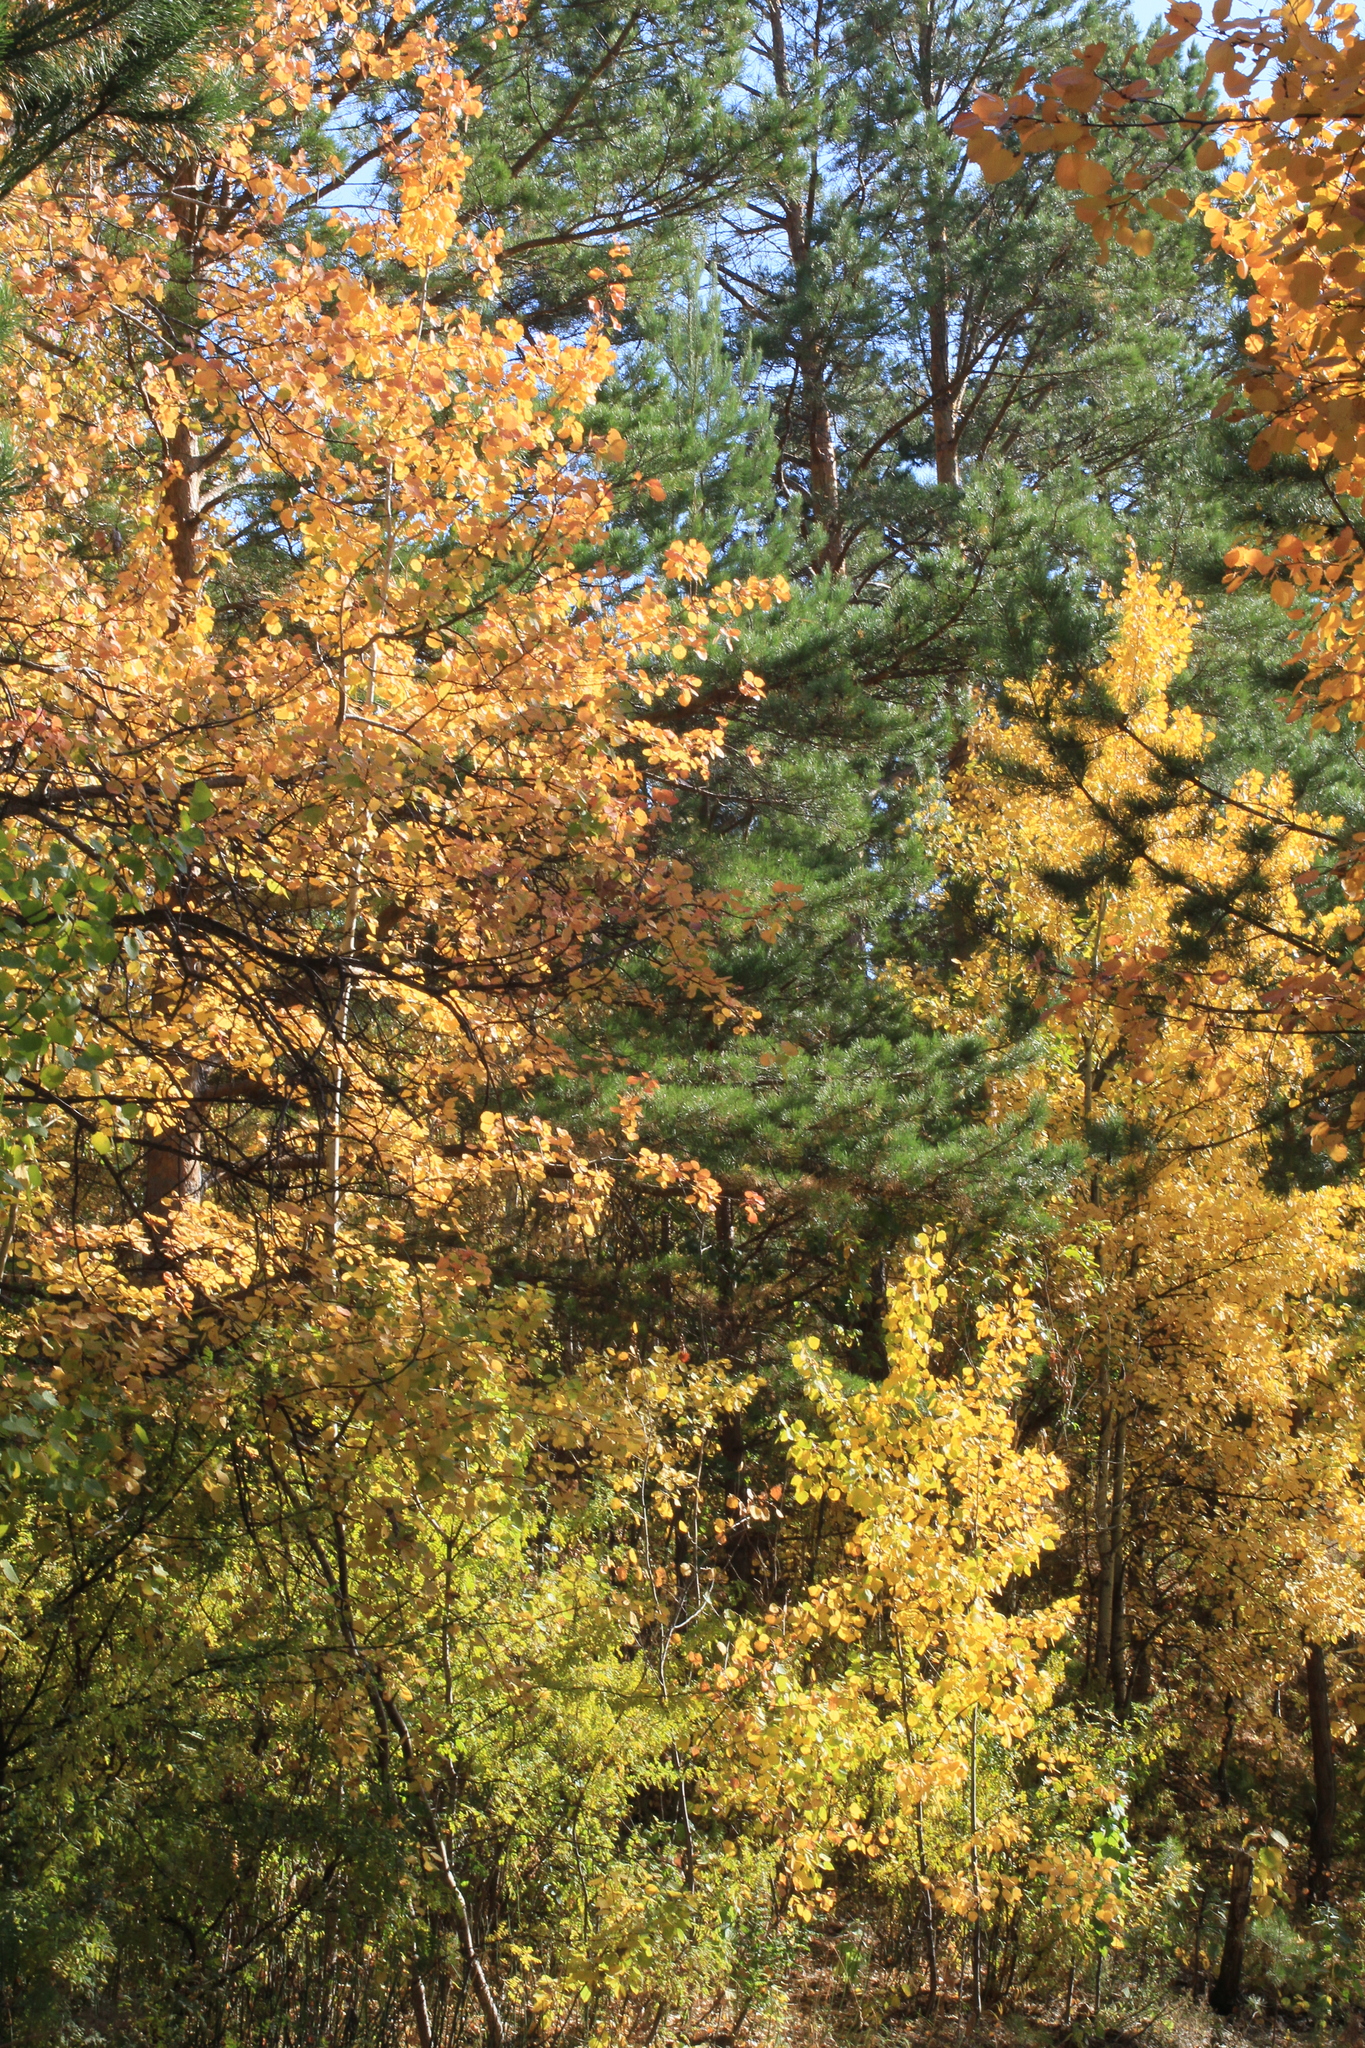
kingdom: Plantae
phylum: Tracheophyta
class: Pinopsida
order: Pinales
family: Pinaceae
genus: Pinus
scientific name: Pinus sylvestris
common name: Scots pine
